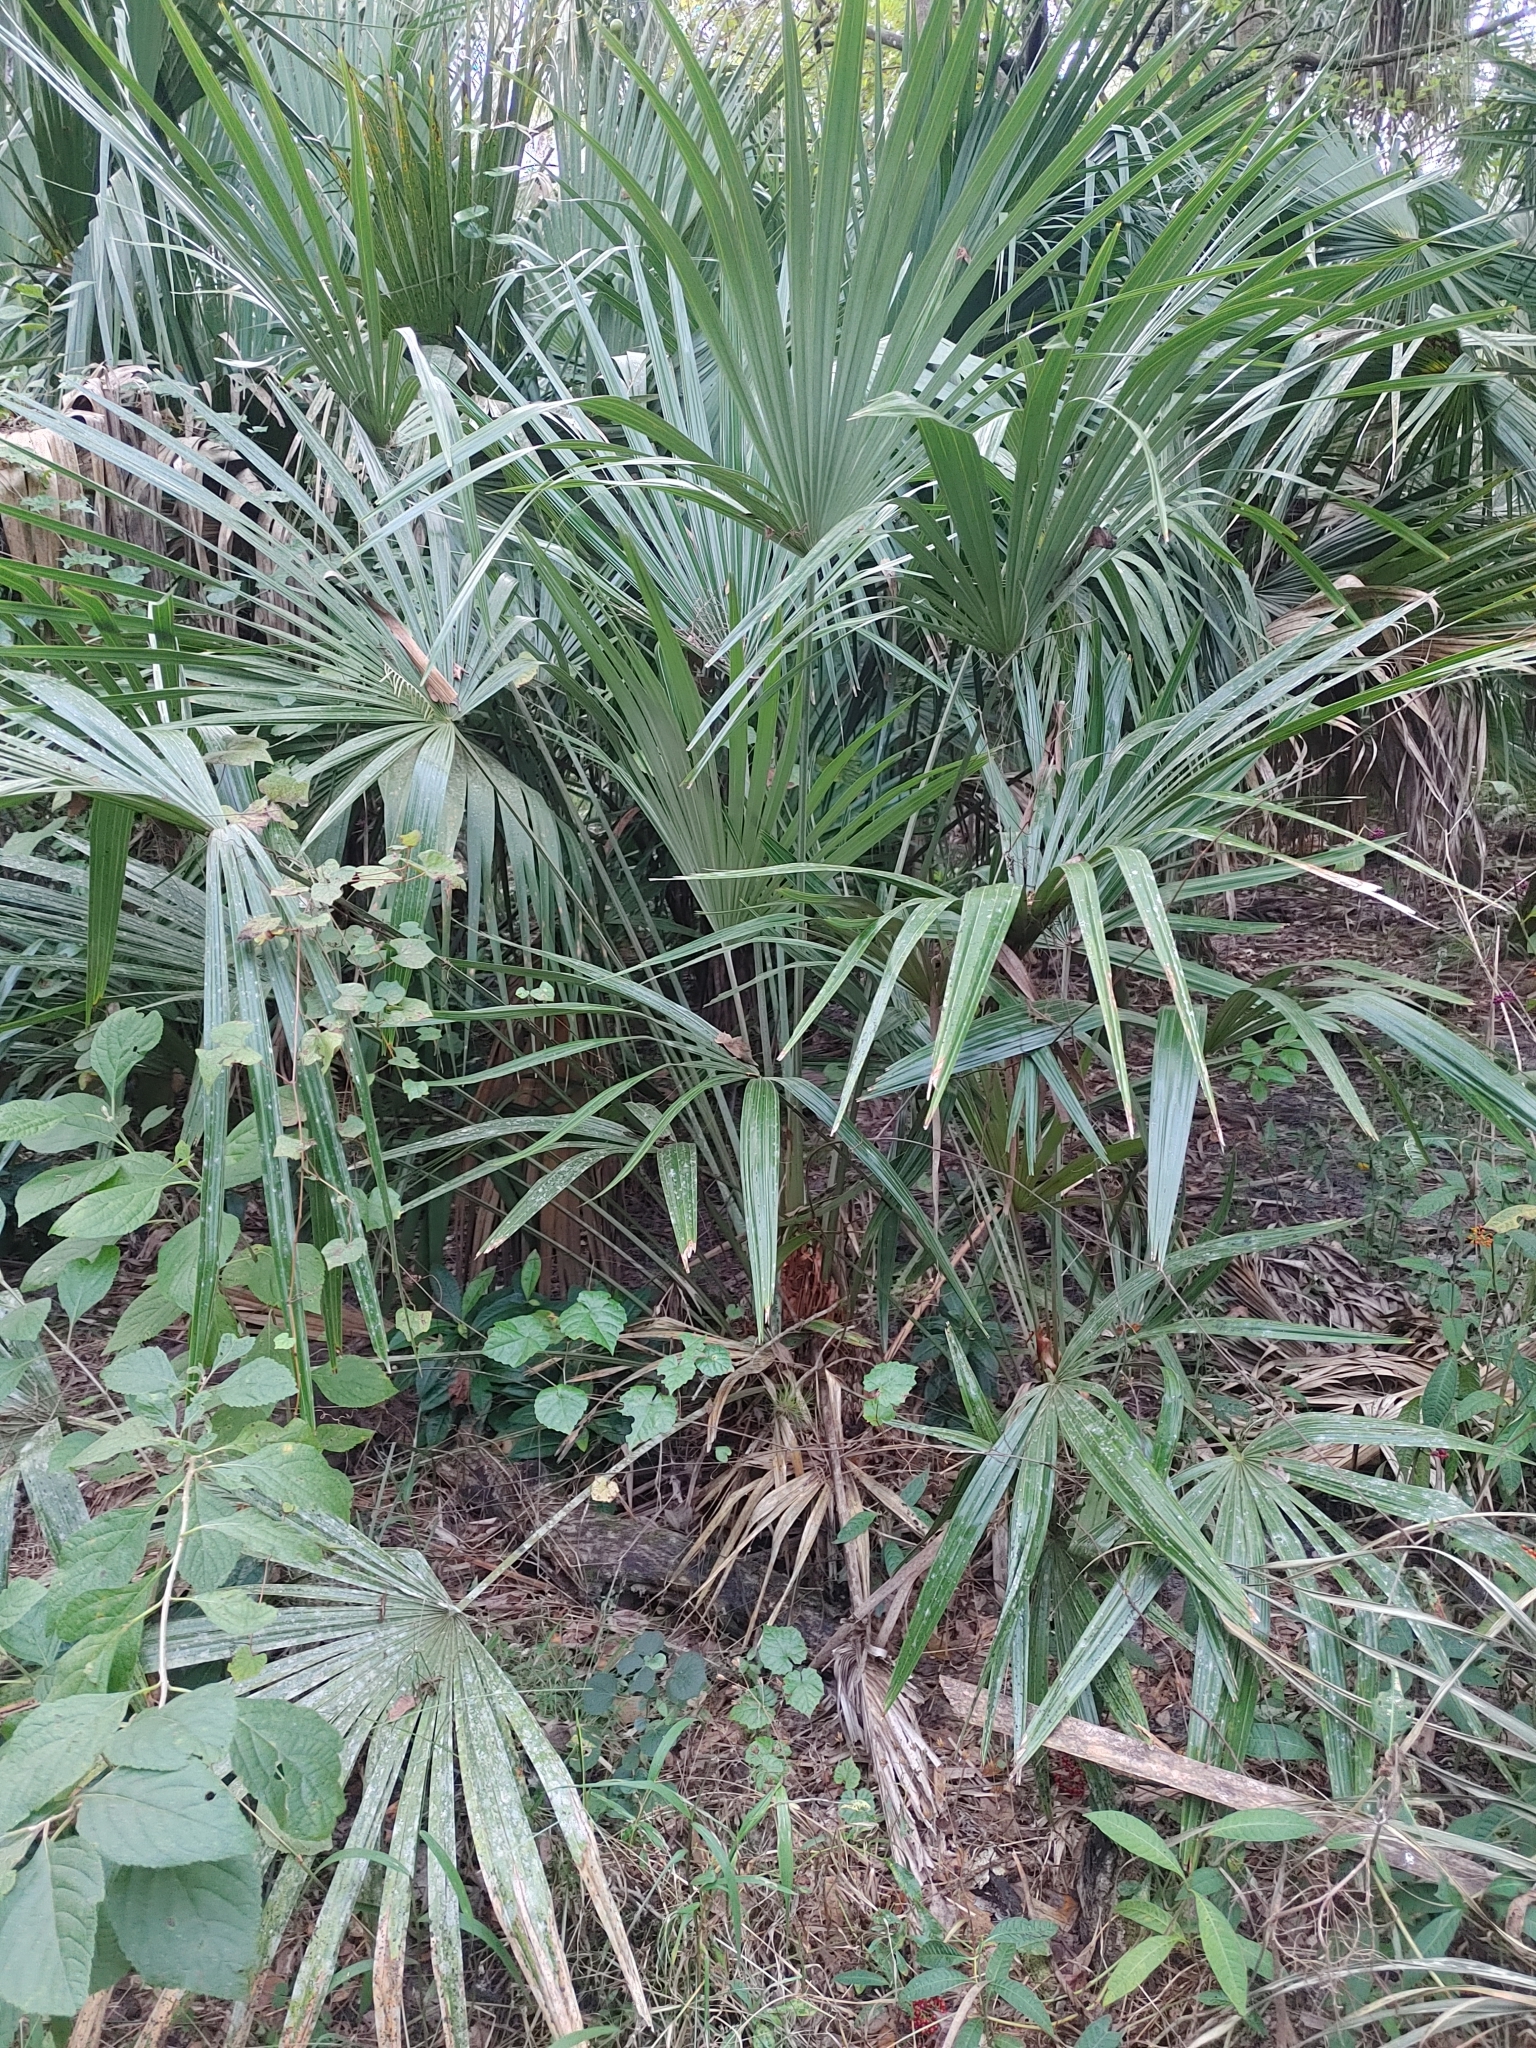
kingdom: Plantae
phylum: Tracheophyta
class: Liliopsida
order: Arecales
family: Arecaceae
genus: Rhapidophyllum
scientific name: Rhapidophyllum hystrix
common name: Porcupine palm
